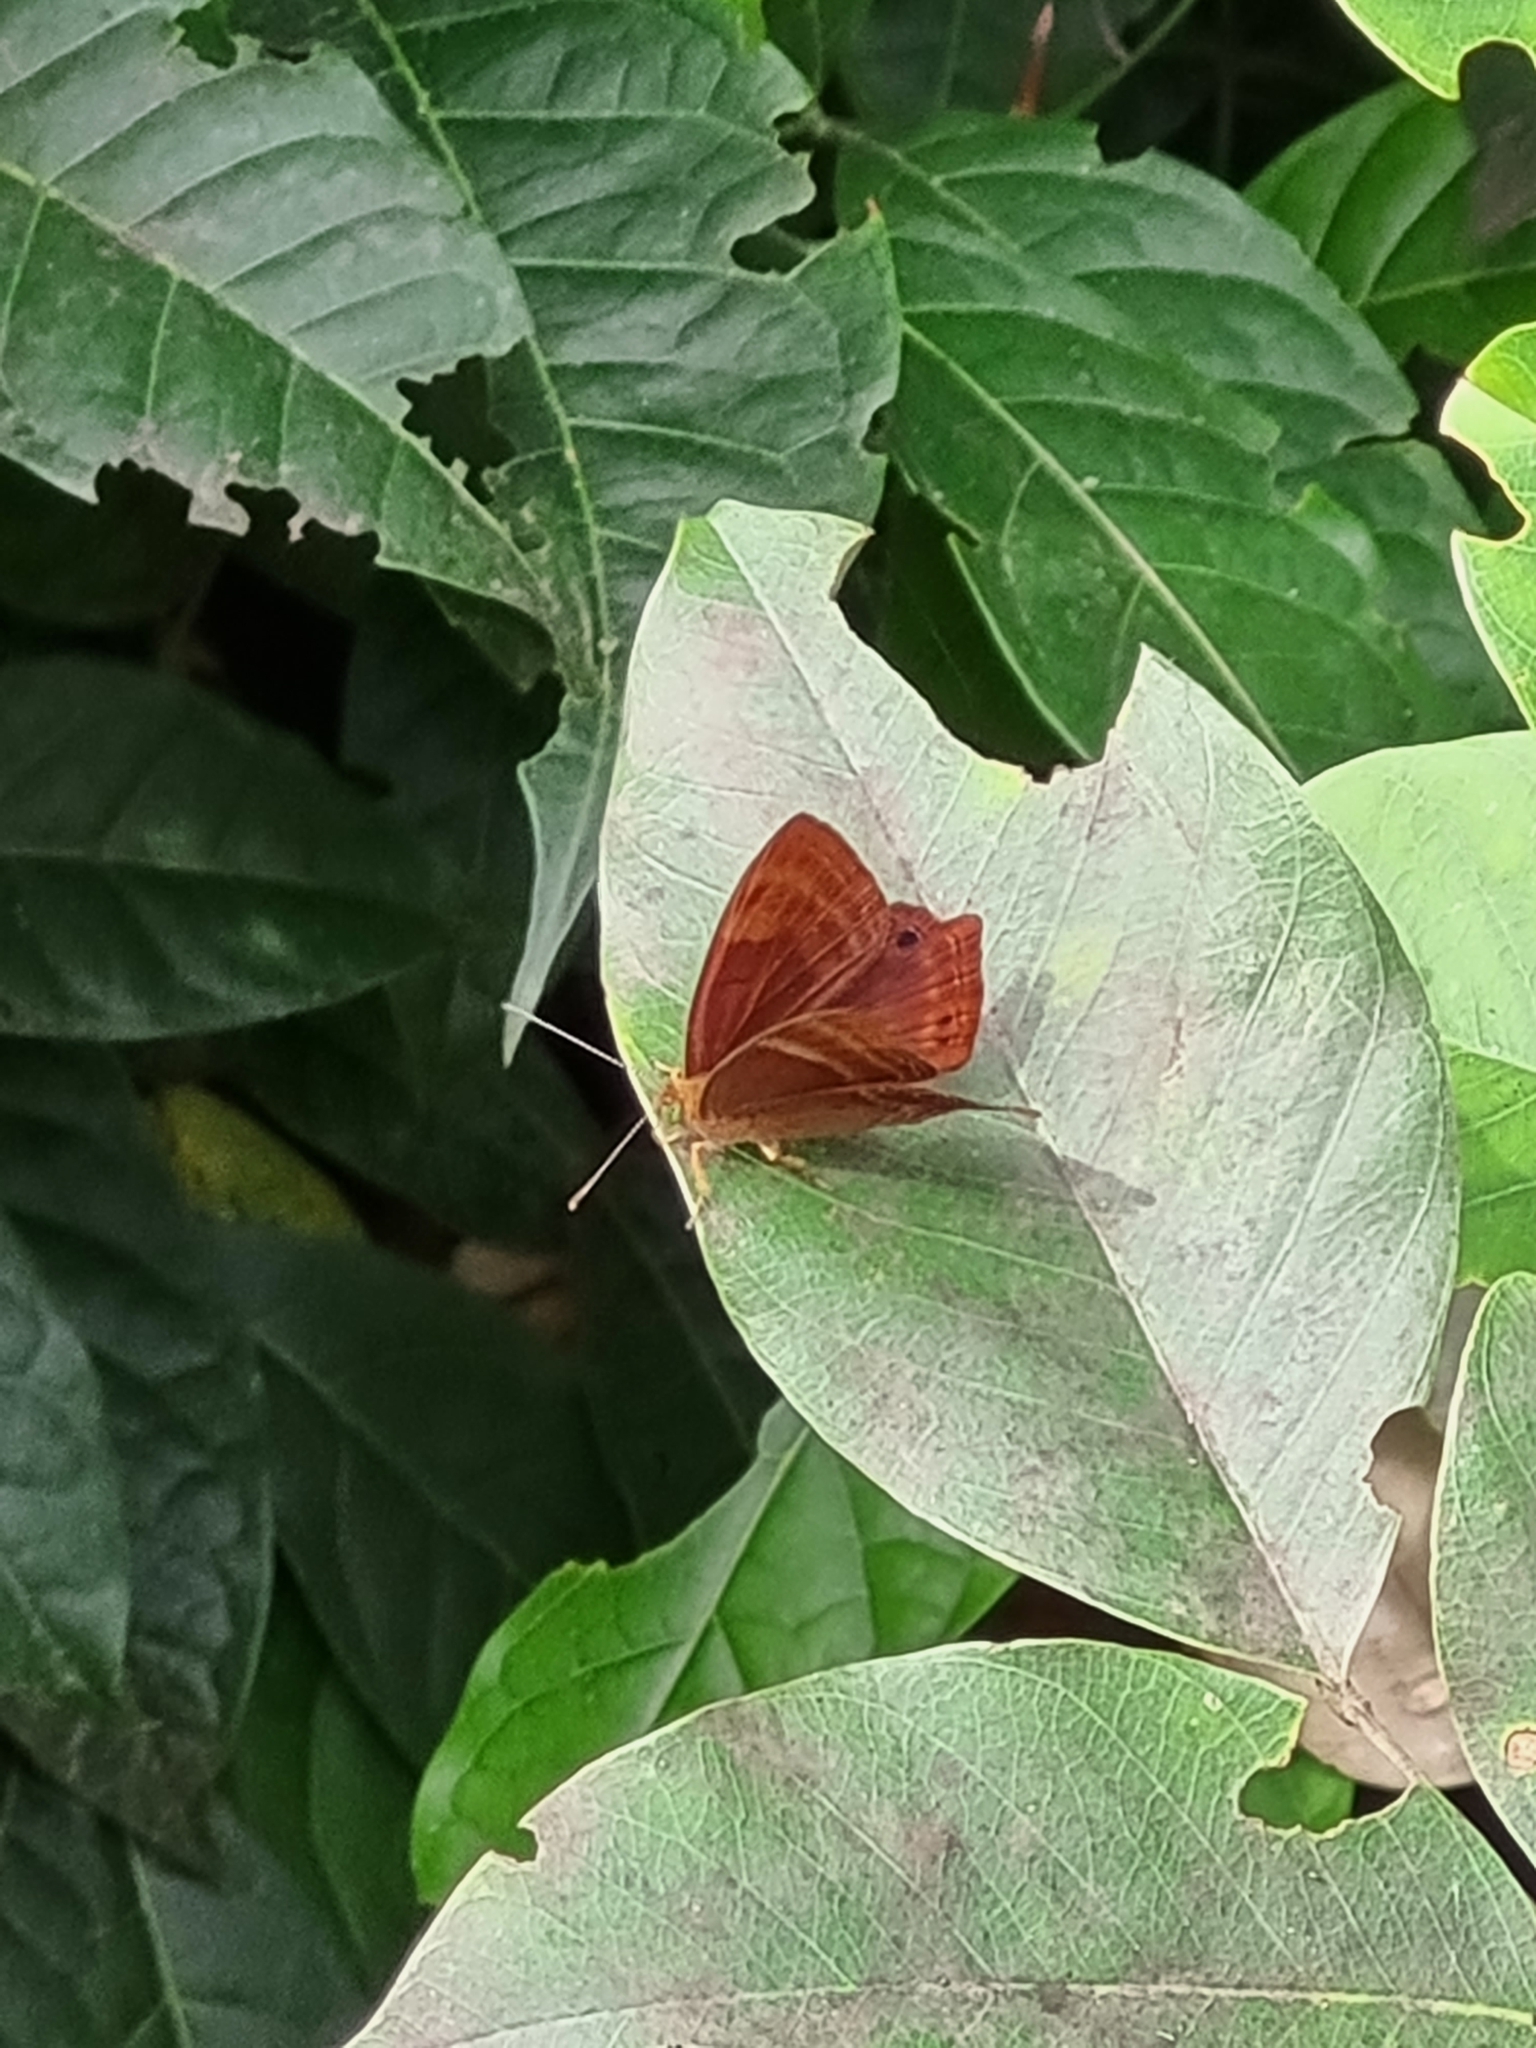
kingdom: Animalia
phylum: Arthropoda
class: Insecta
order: Lepidoptera
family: Lycaenidae
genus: Abisara
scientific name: Abisara bifasciata
